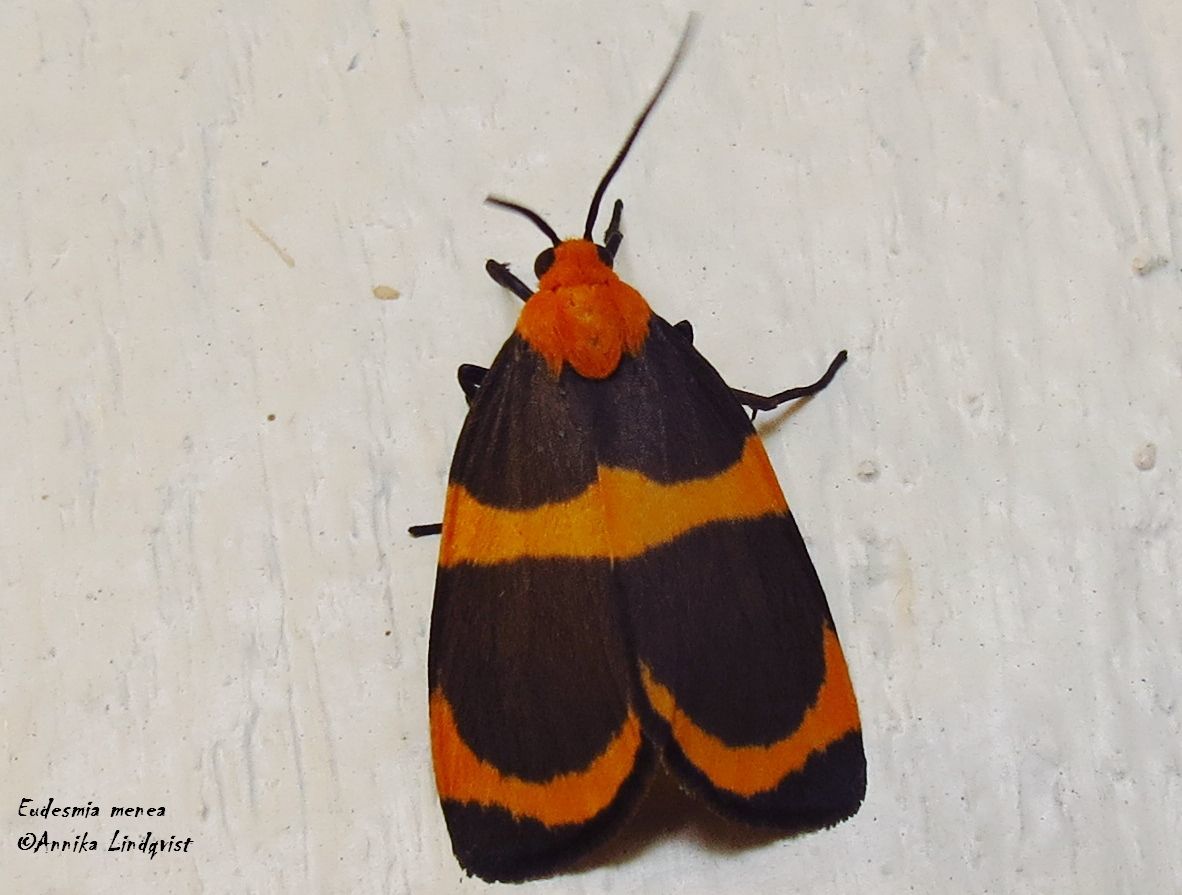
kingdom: Animalia
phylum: Arthropoda
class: Insecta
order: Lepidoptera
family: Erebidae
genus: Eudesmia
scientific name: Eudesmia menea
